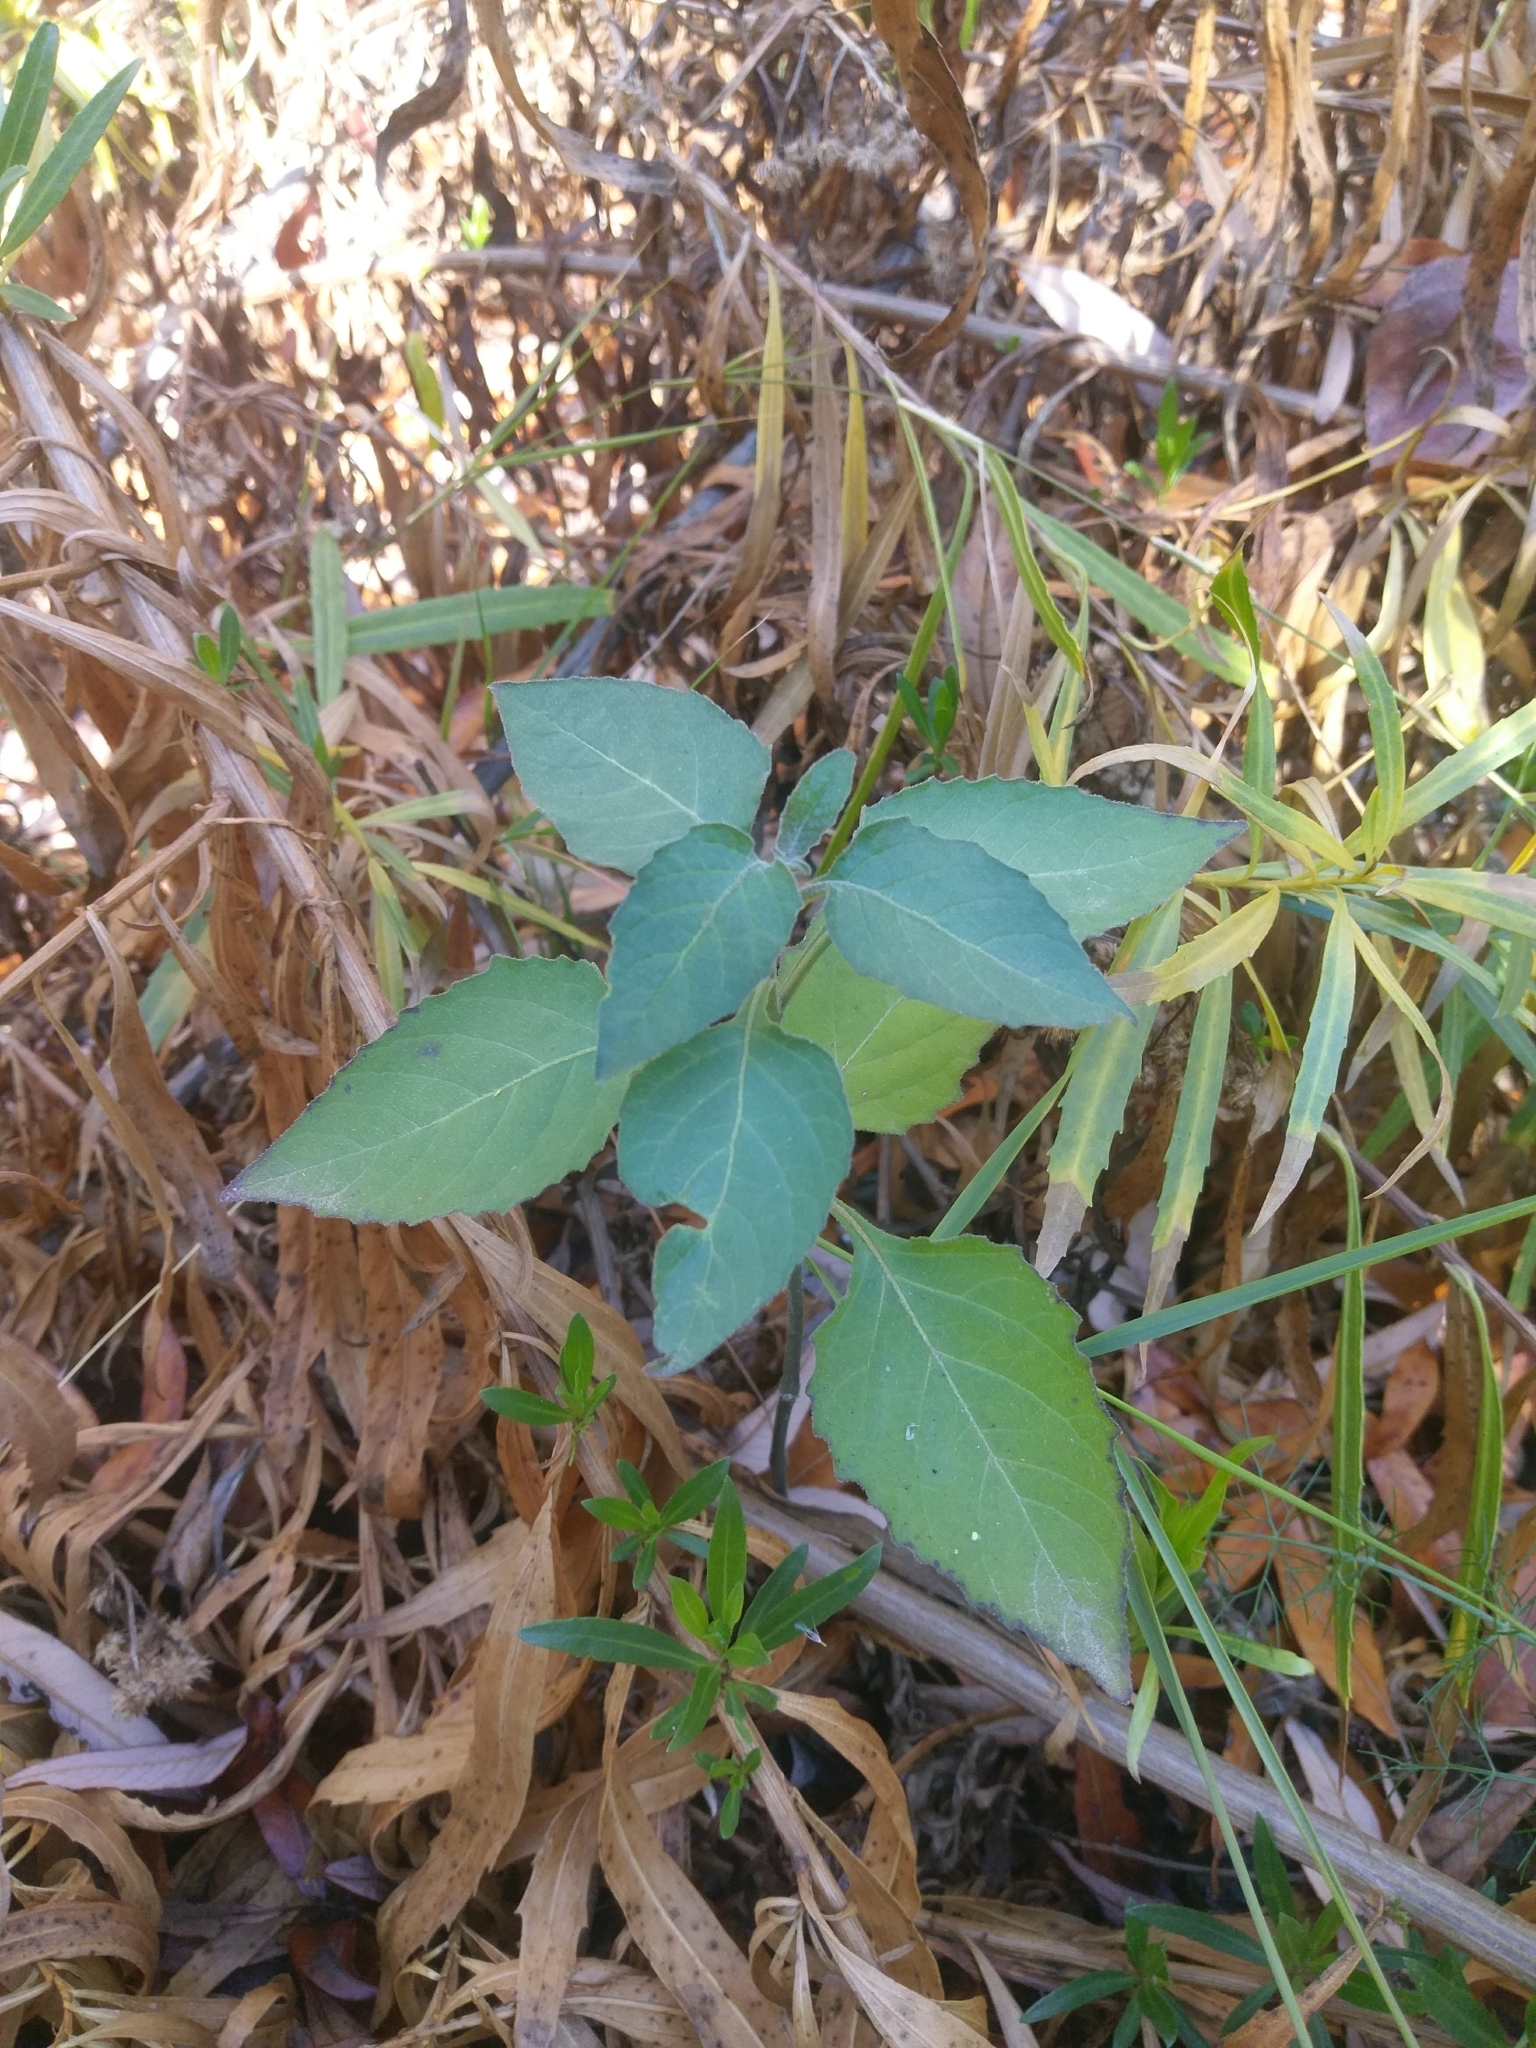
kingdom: Plantae
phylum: Tracheophyta
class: Magnoliopsida
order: Solanales
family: Solanaceae
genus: Solanum
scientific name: Solanum douglasii
